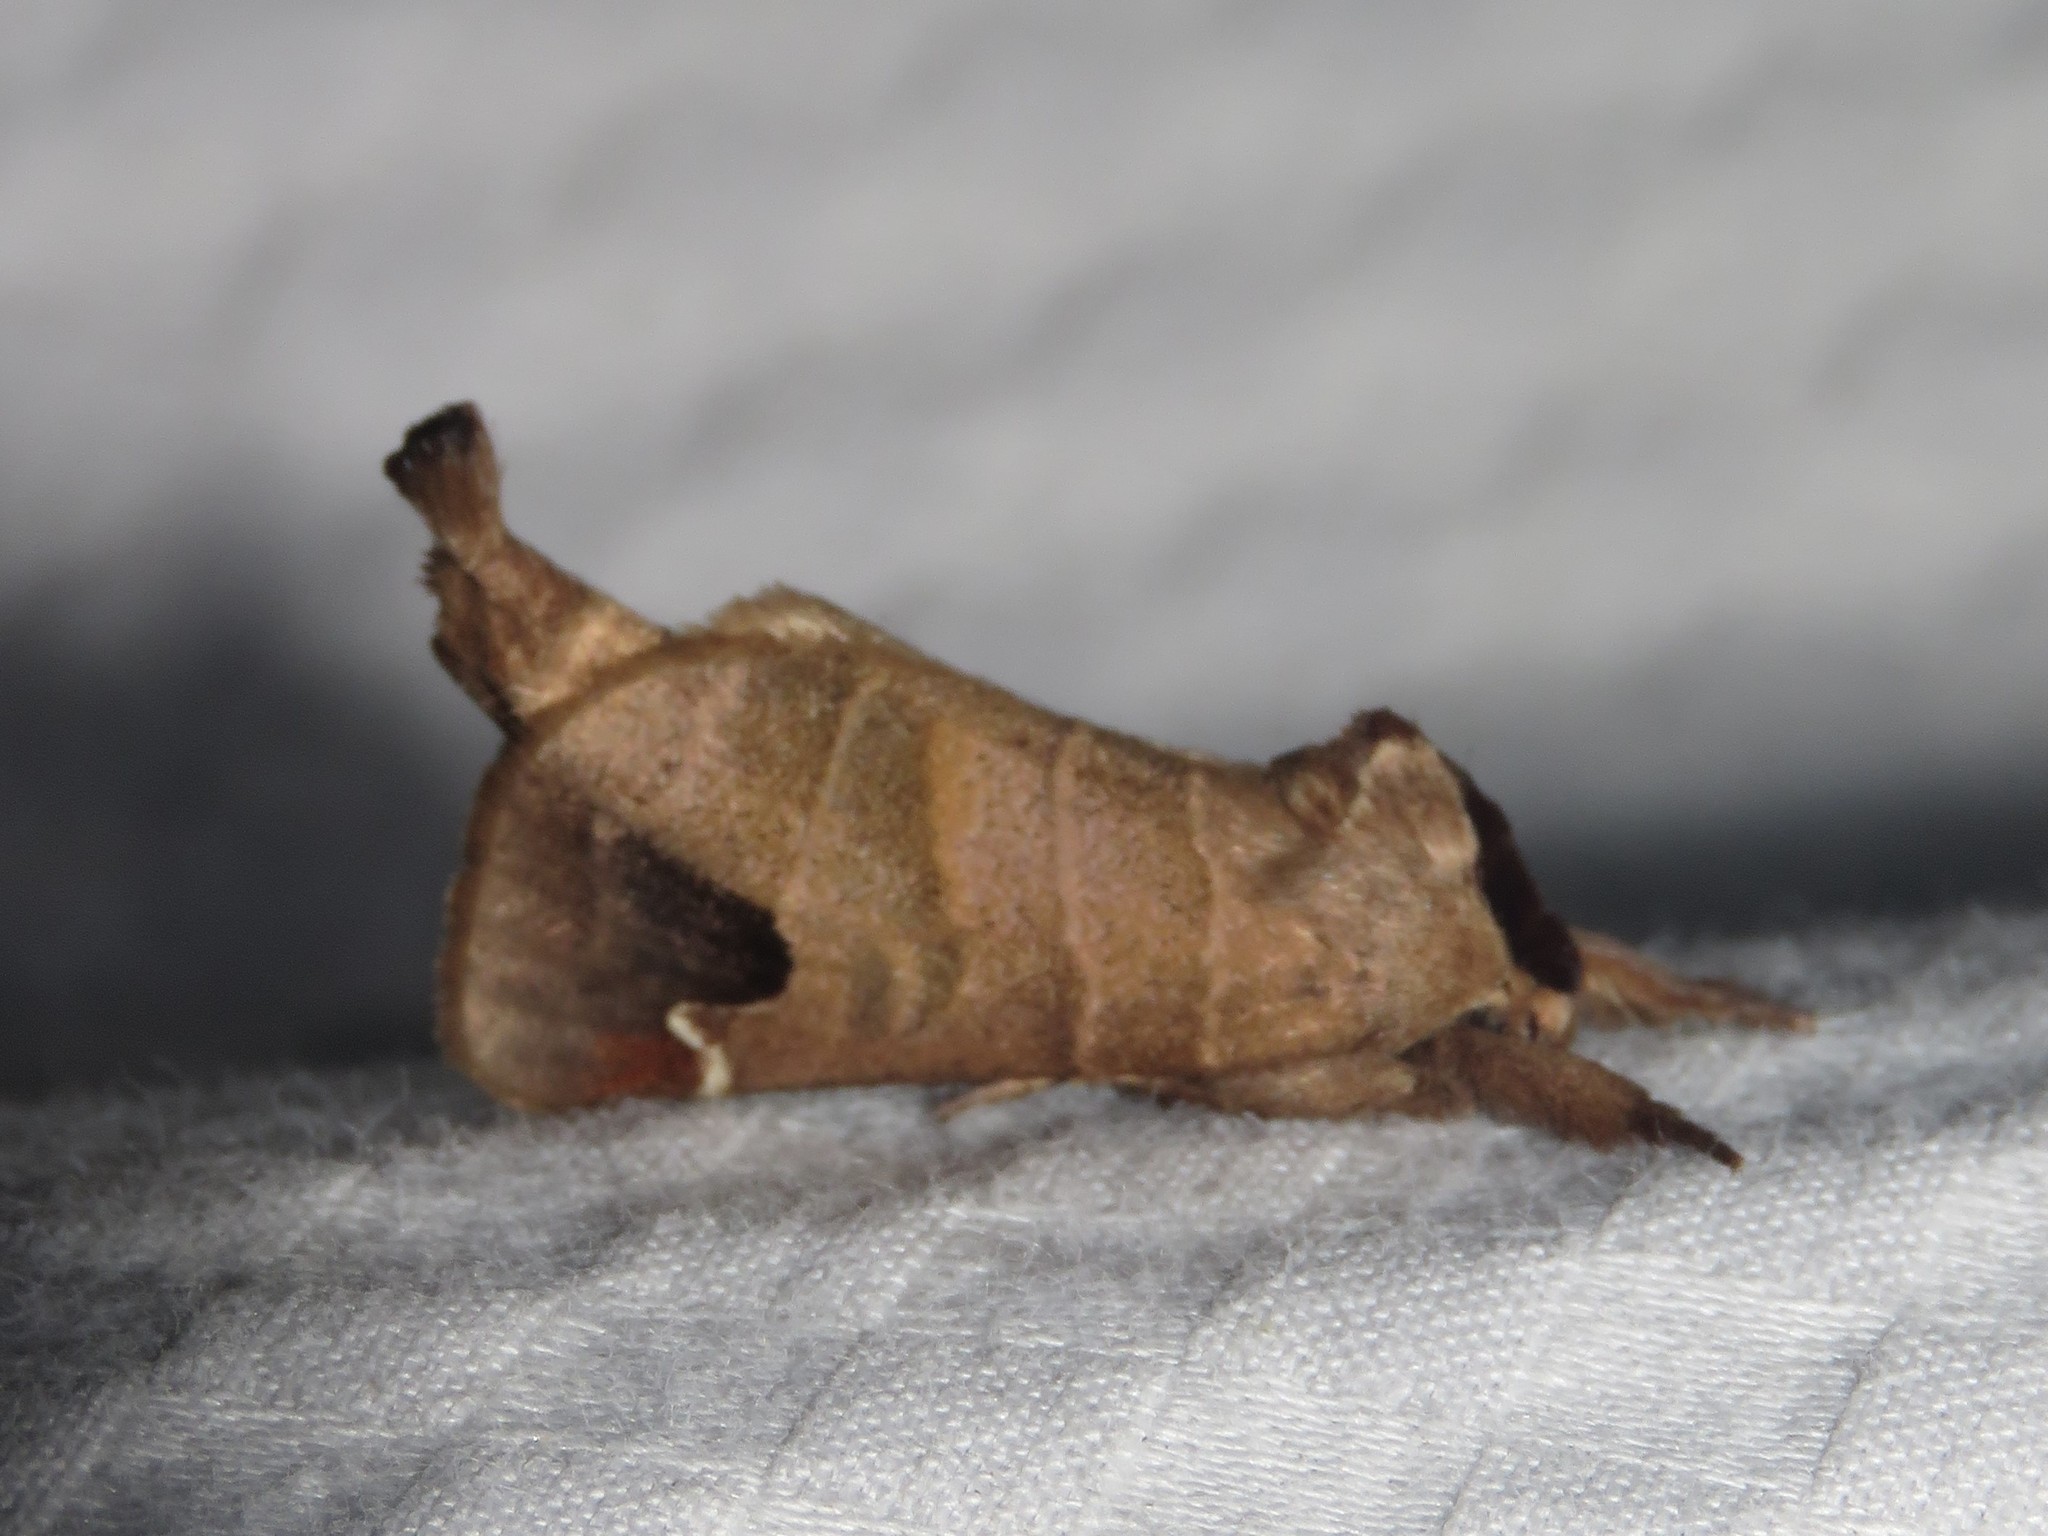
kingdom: Animalia
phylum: Arthropoda
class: Insecta
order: Lepidoptera
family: Notodontidae
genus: Clostera
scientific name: Clostera albosigma
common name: Sigmoid prominent
